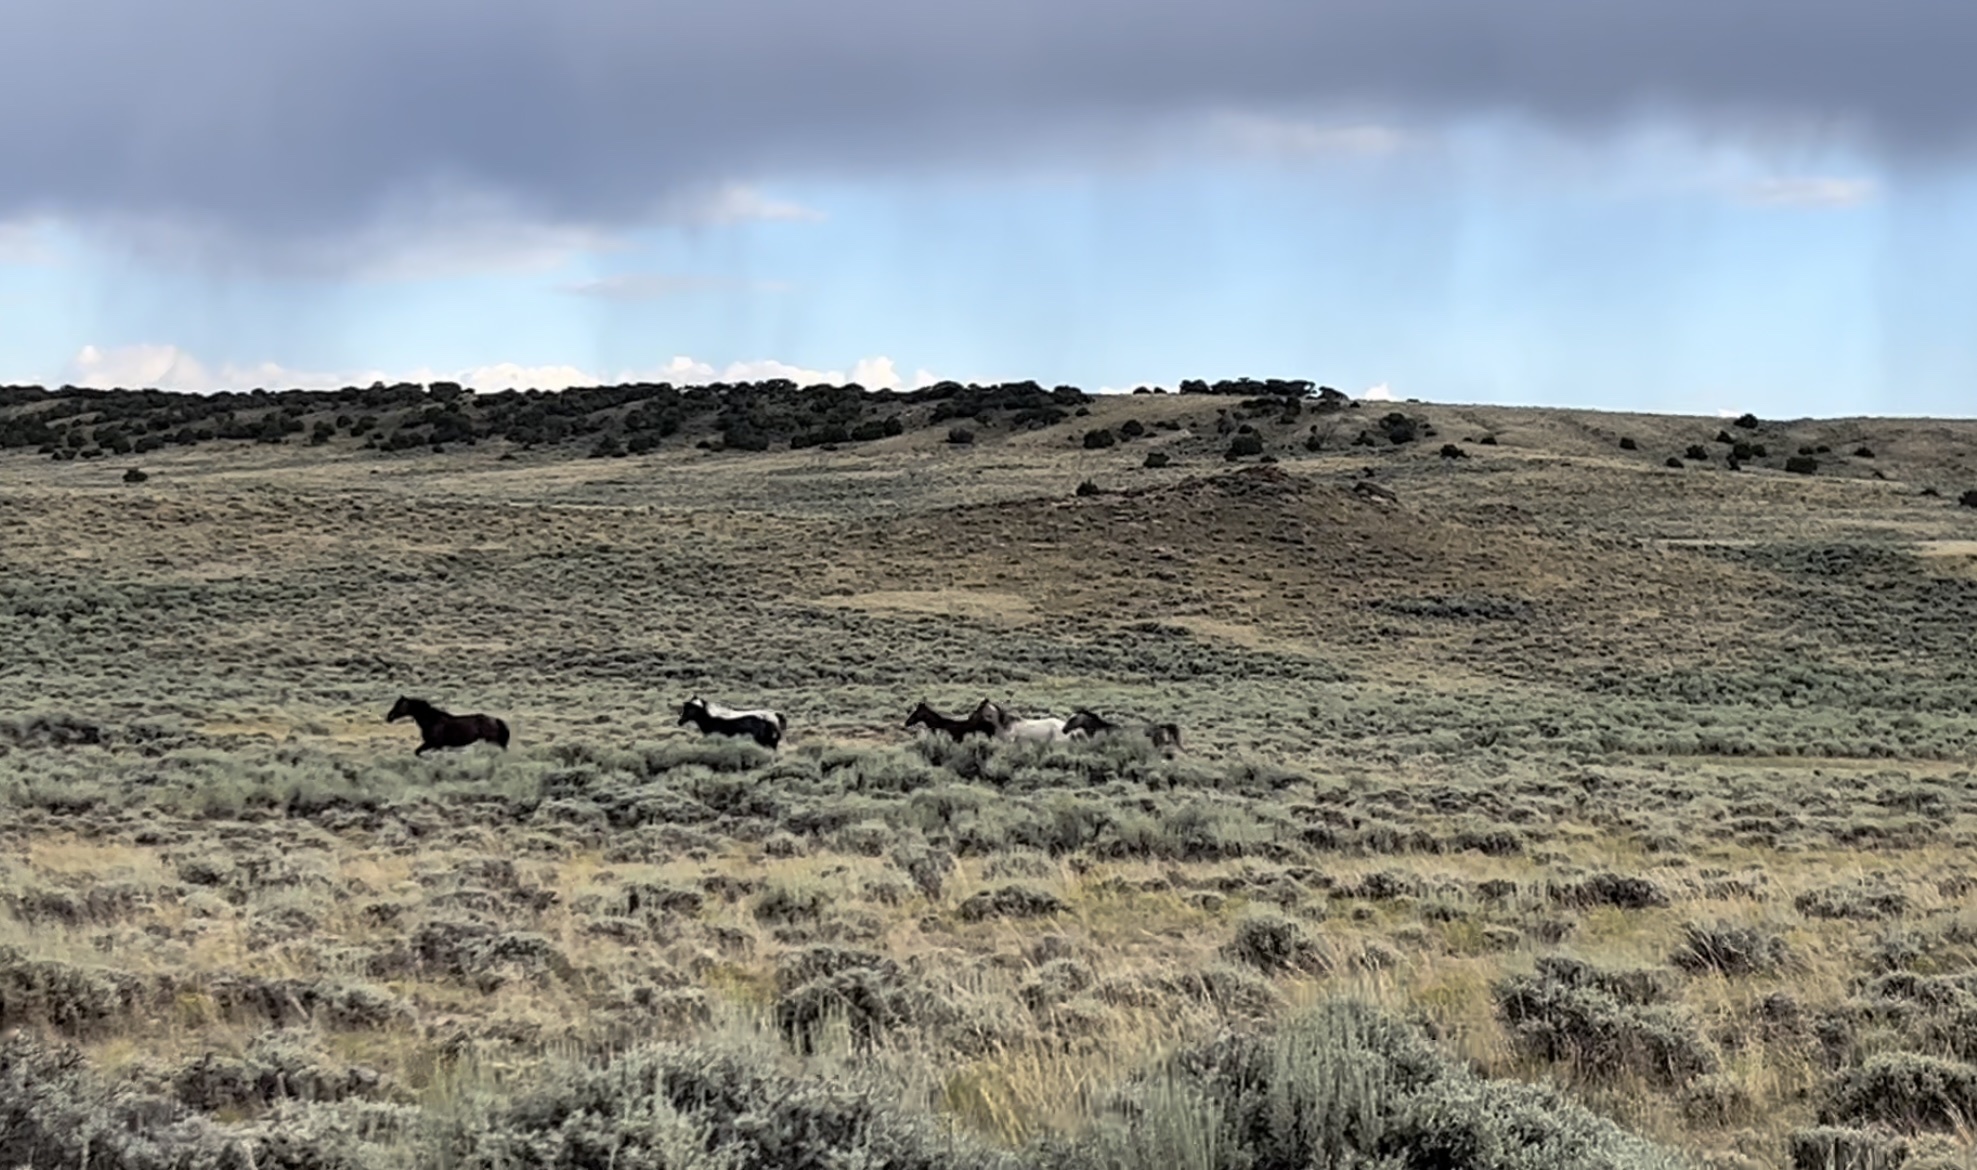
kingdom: Animalia
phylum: Chordata
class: Mammalia
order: Perissodactyla
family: Equidae
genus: Equus
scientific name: Equus caballus
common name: Horse
